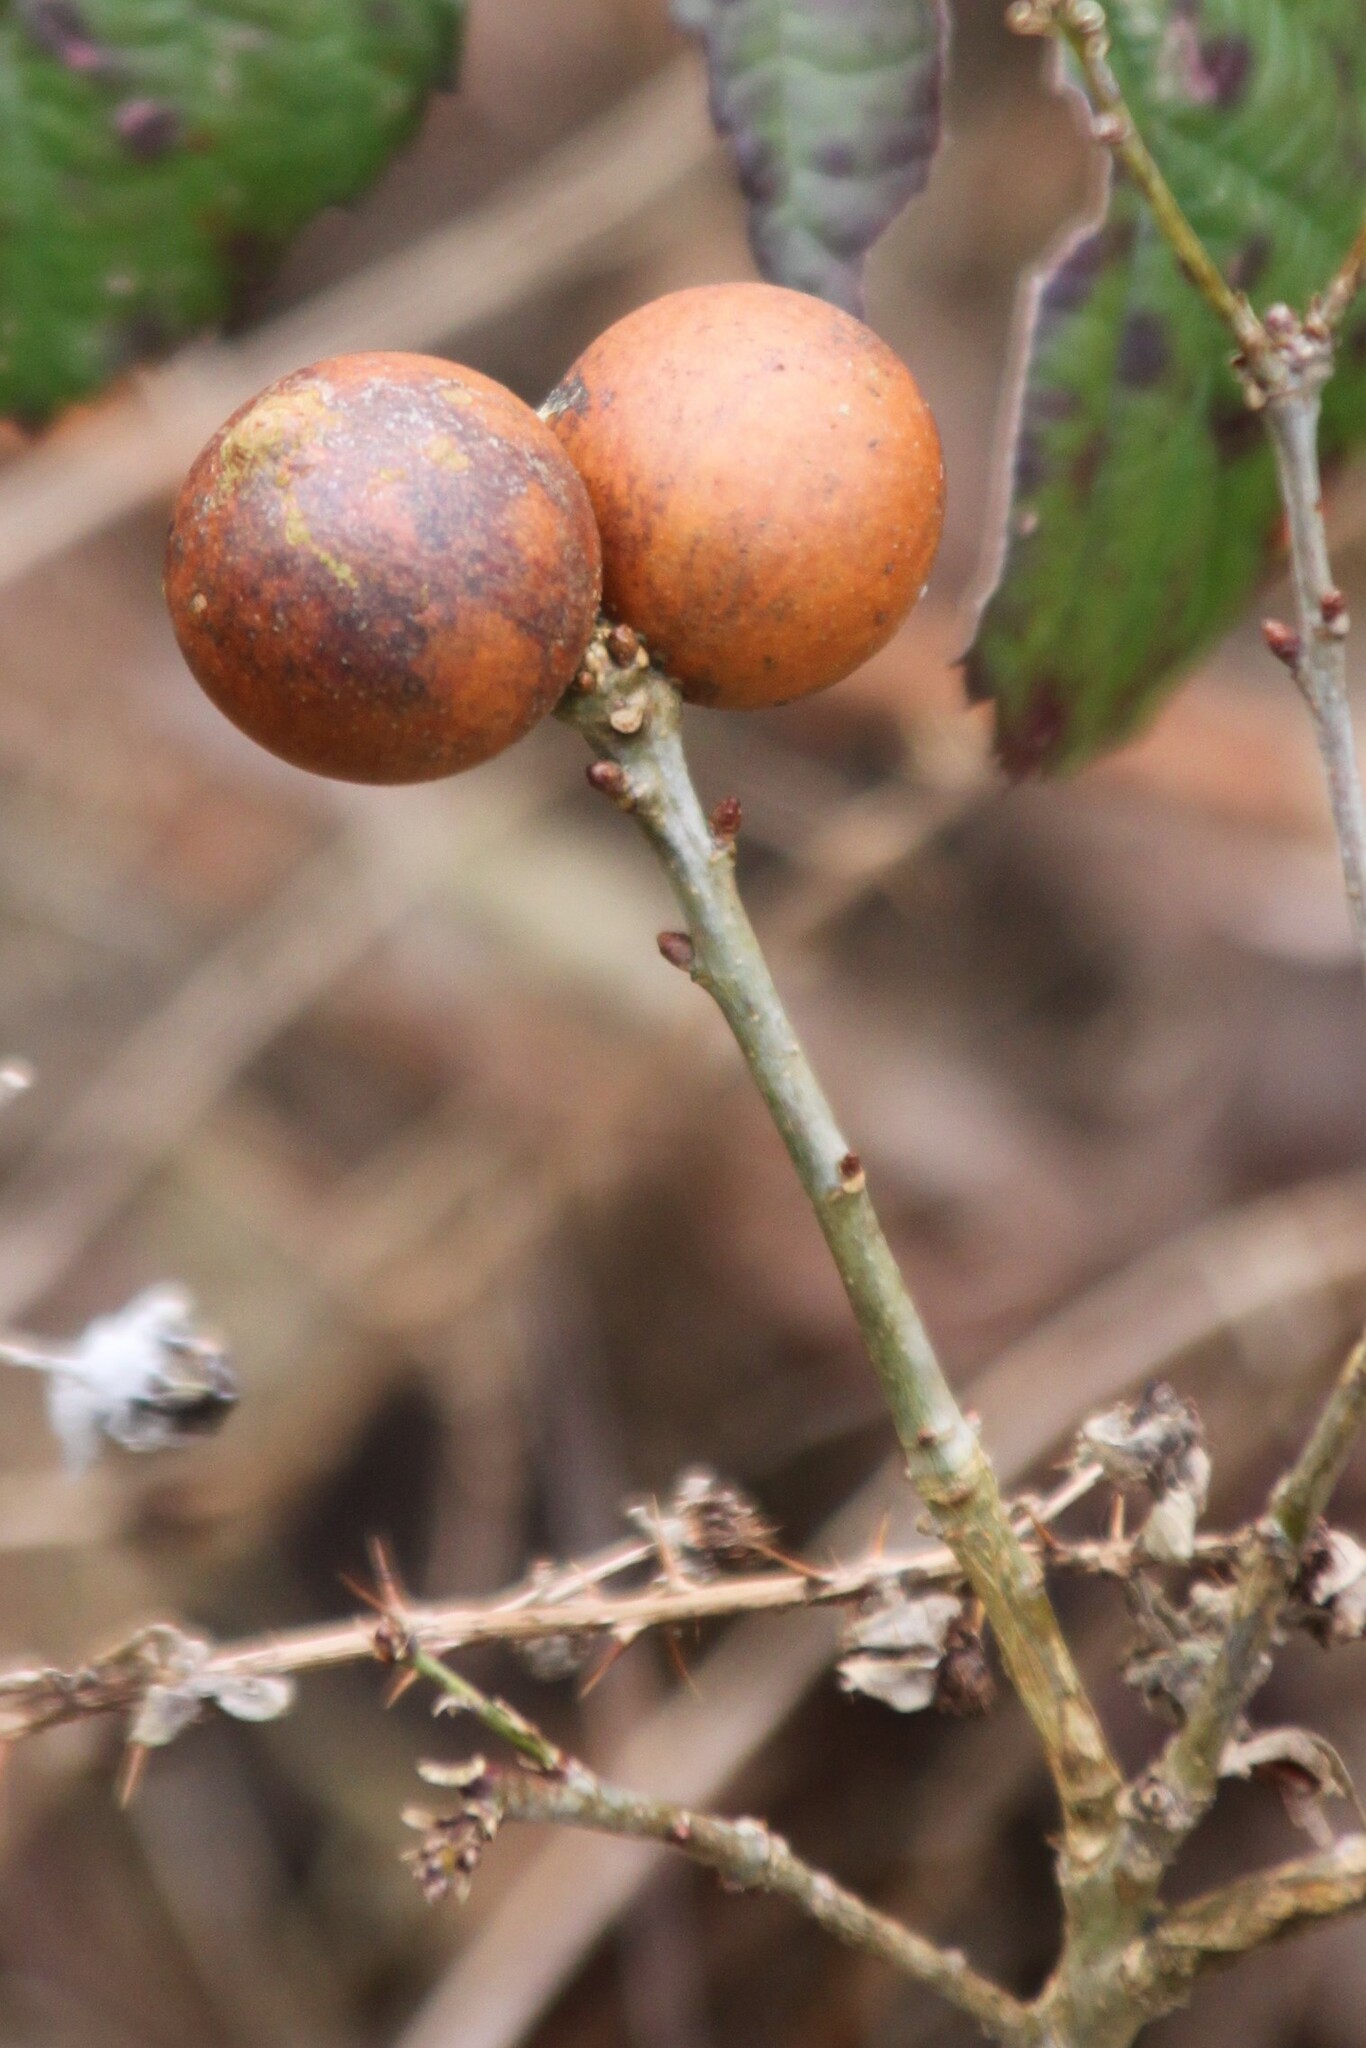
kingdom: Animalia
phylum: Arthropoda
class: Insecta
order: Hymenoptera
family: Cynipidae
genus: Andricus
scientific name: Andricus kollari
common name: Marble gall
